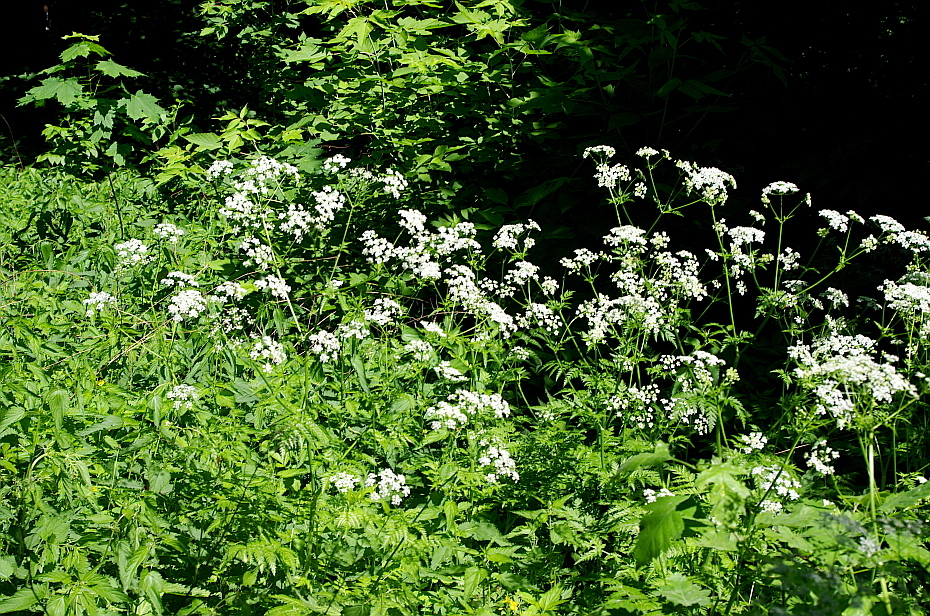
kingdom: Plantae
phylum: Tracheophyta
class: Magnoliopsida
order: Apiales
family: Apiaceae
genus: Anthriscus
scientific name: Anthriscus sylvestris
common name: Cow parsley
